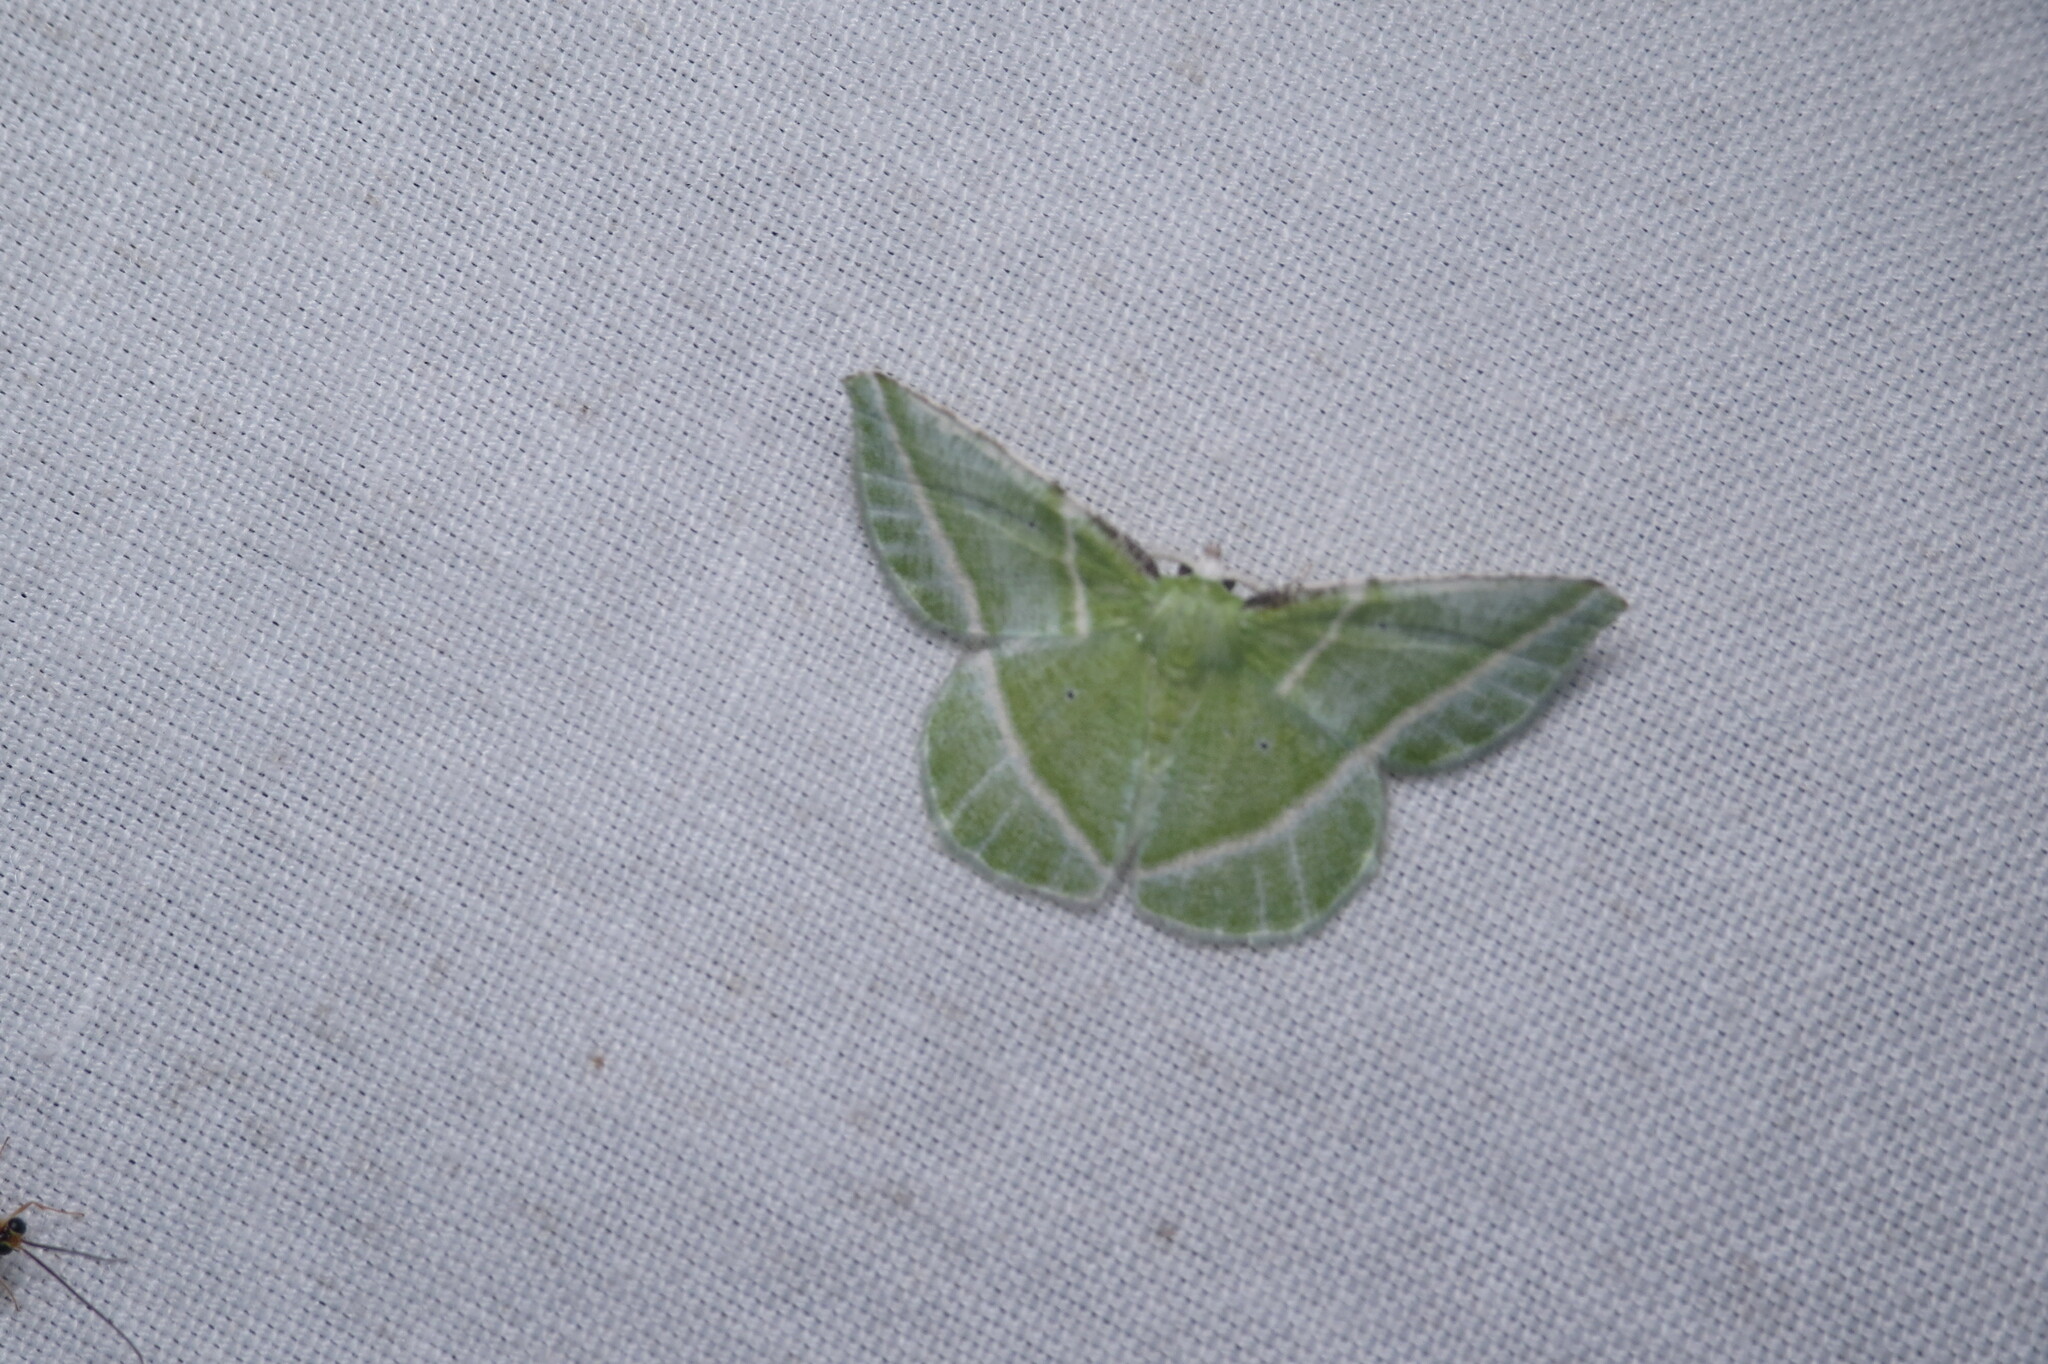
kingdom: Animalia
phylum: Arthropoda
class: Insecta
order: Lepidoptera
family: Geometridae
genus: Dichorda
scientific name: Dichorda iridaria
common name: Showy emerald
